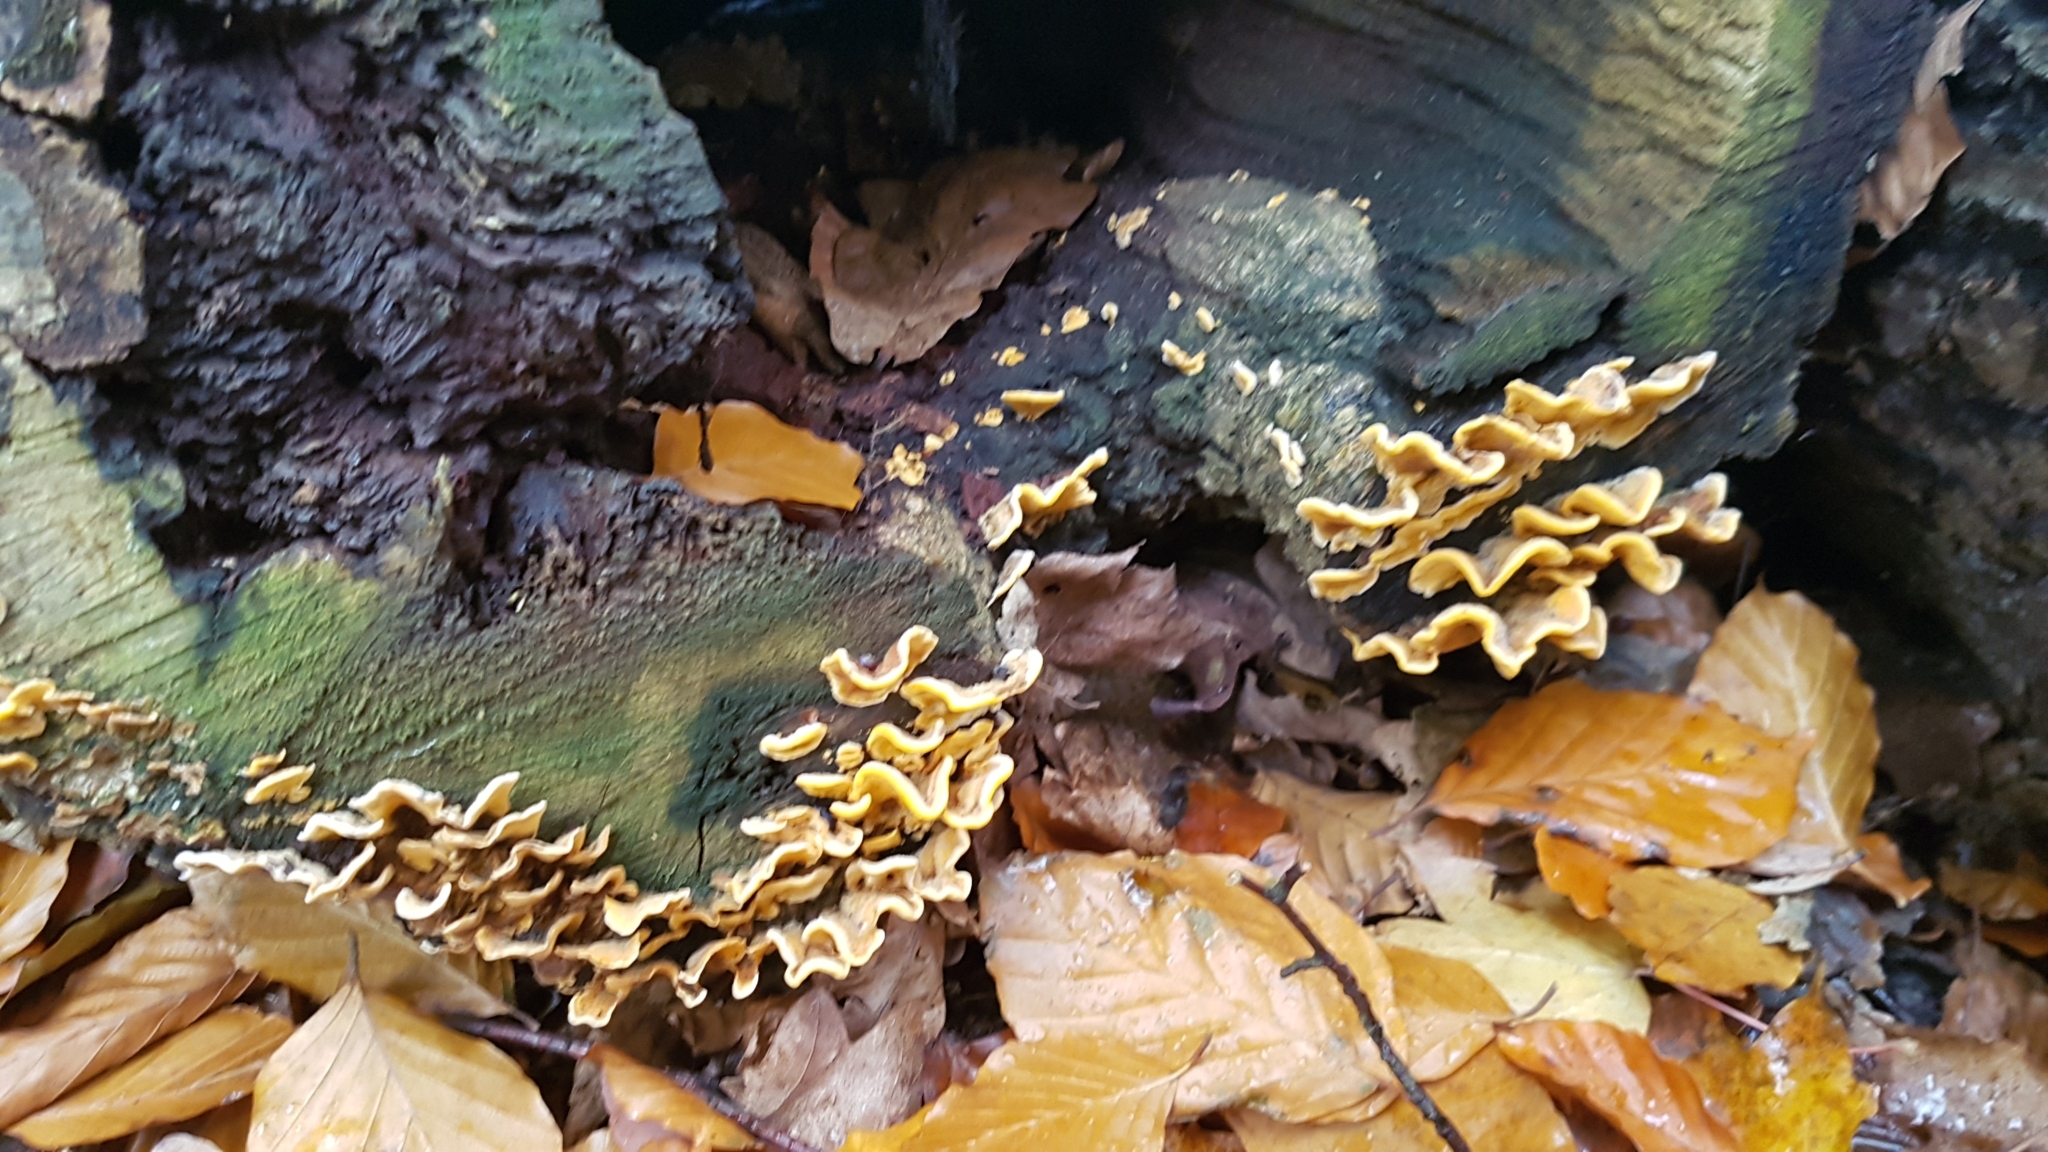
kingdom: Fungi
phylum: Basidiomycota
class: Agaricomycetes
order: Russulales
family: Stereaceae
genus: Stereum
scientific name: Stereum hirsutum
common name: Hairy curtain crust
